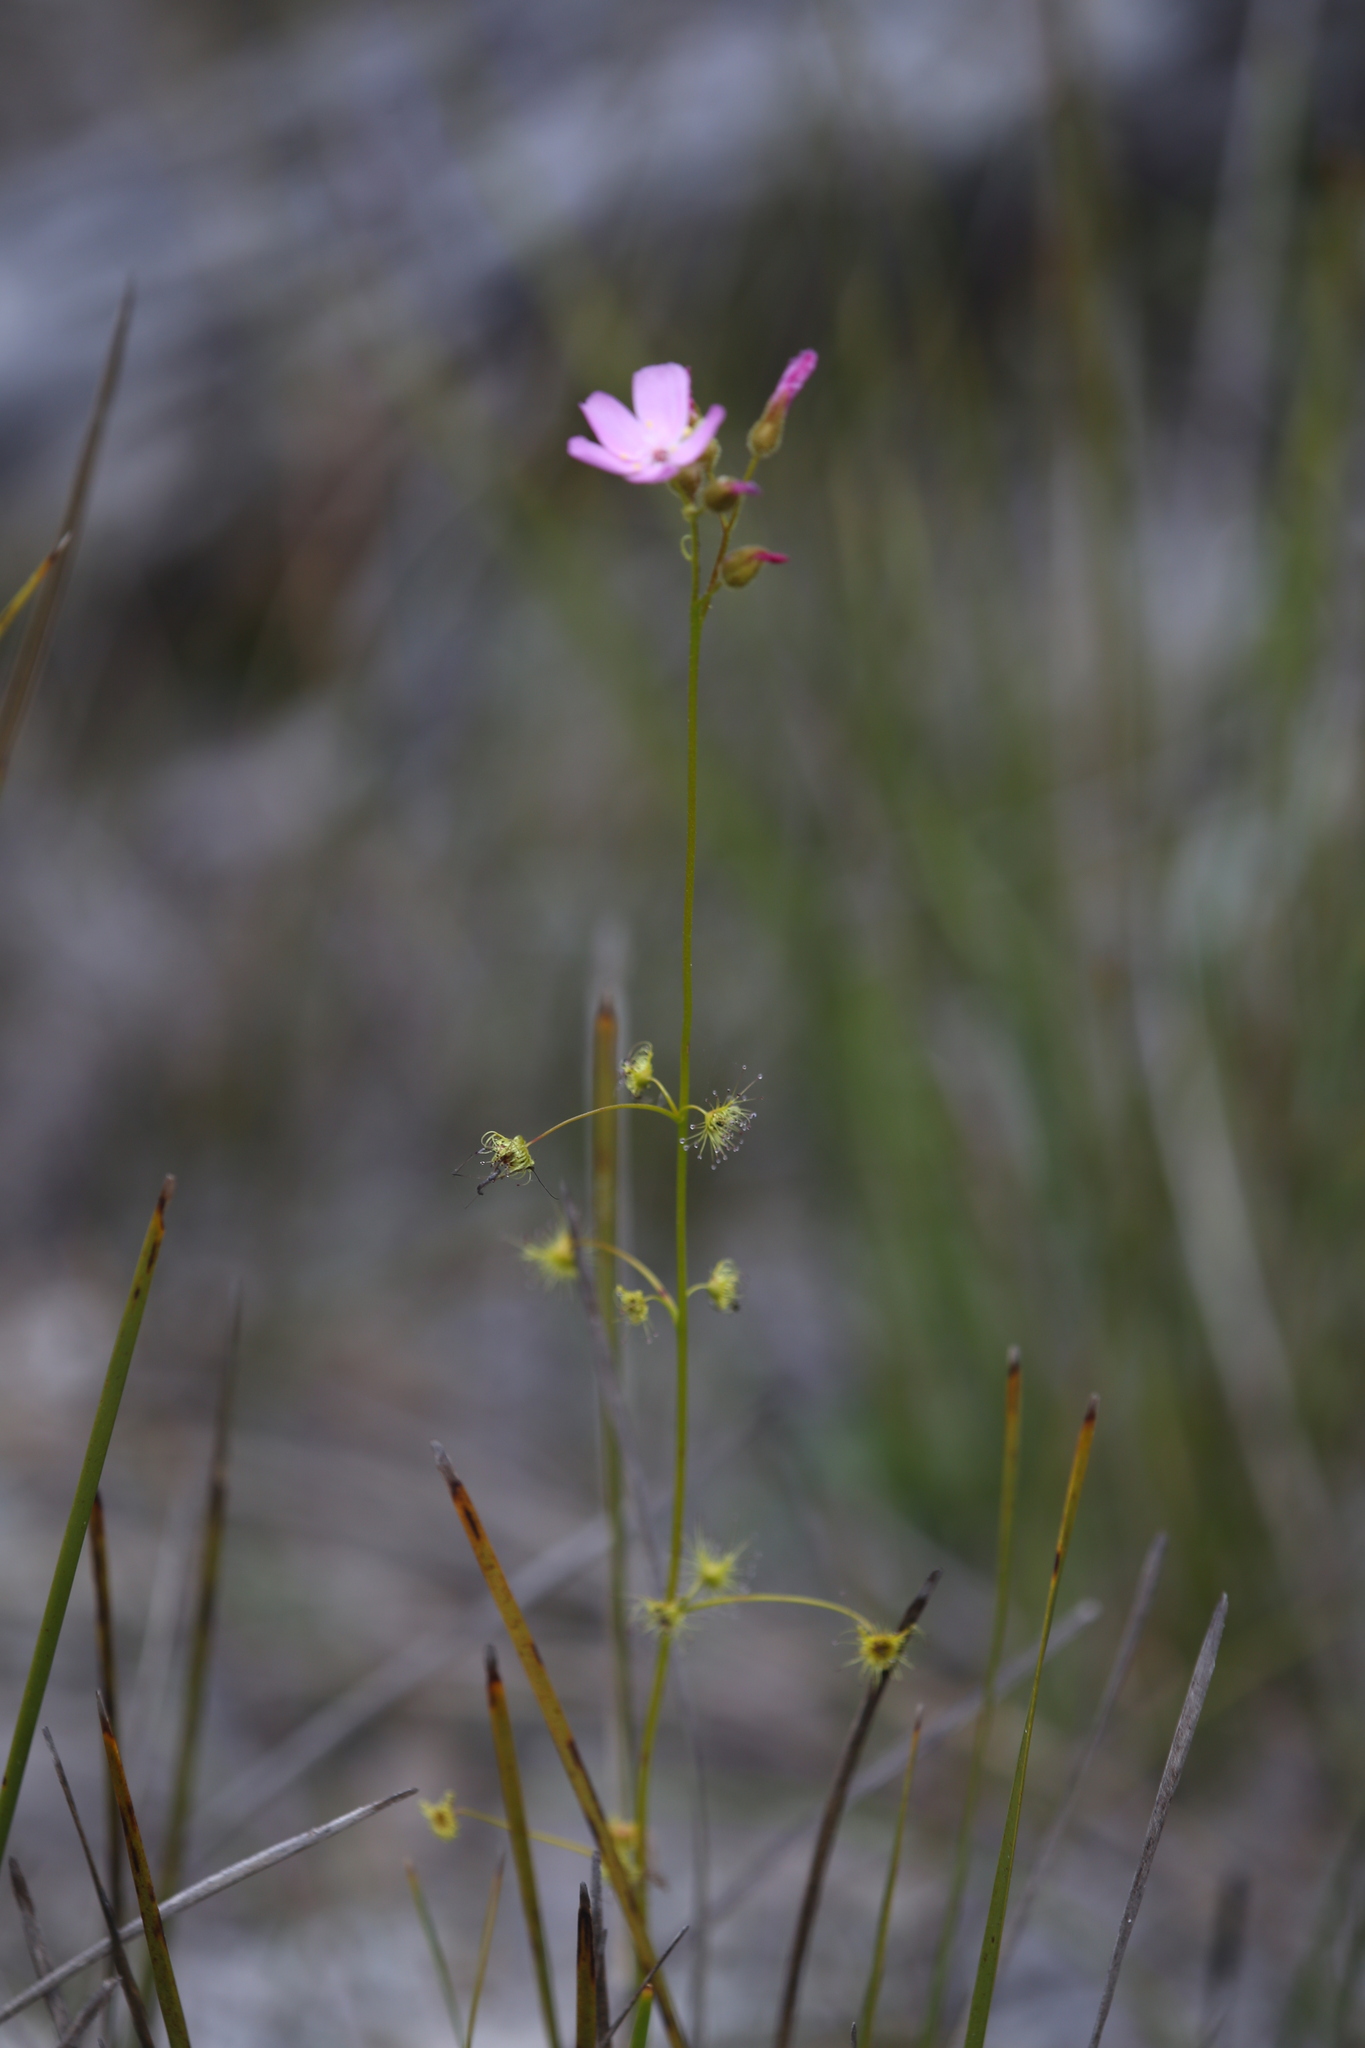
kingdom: Plantae
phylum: Tracheophyta
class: Magnoliopsida
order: Caryophyllales
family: Droseraceae
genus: Drosera
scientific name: Drosera neesii
